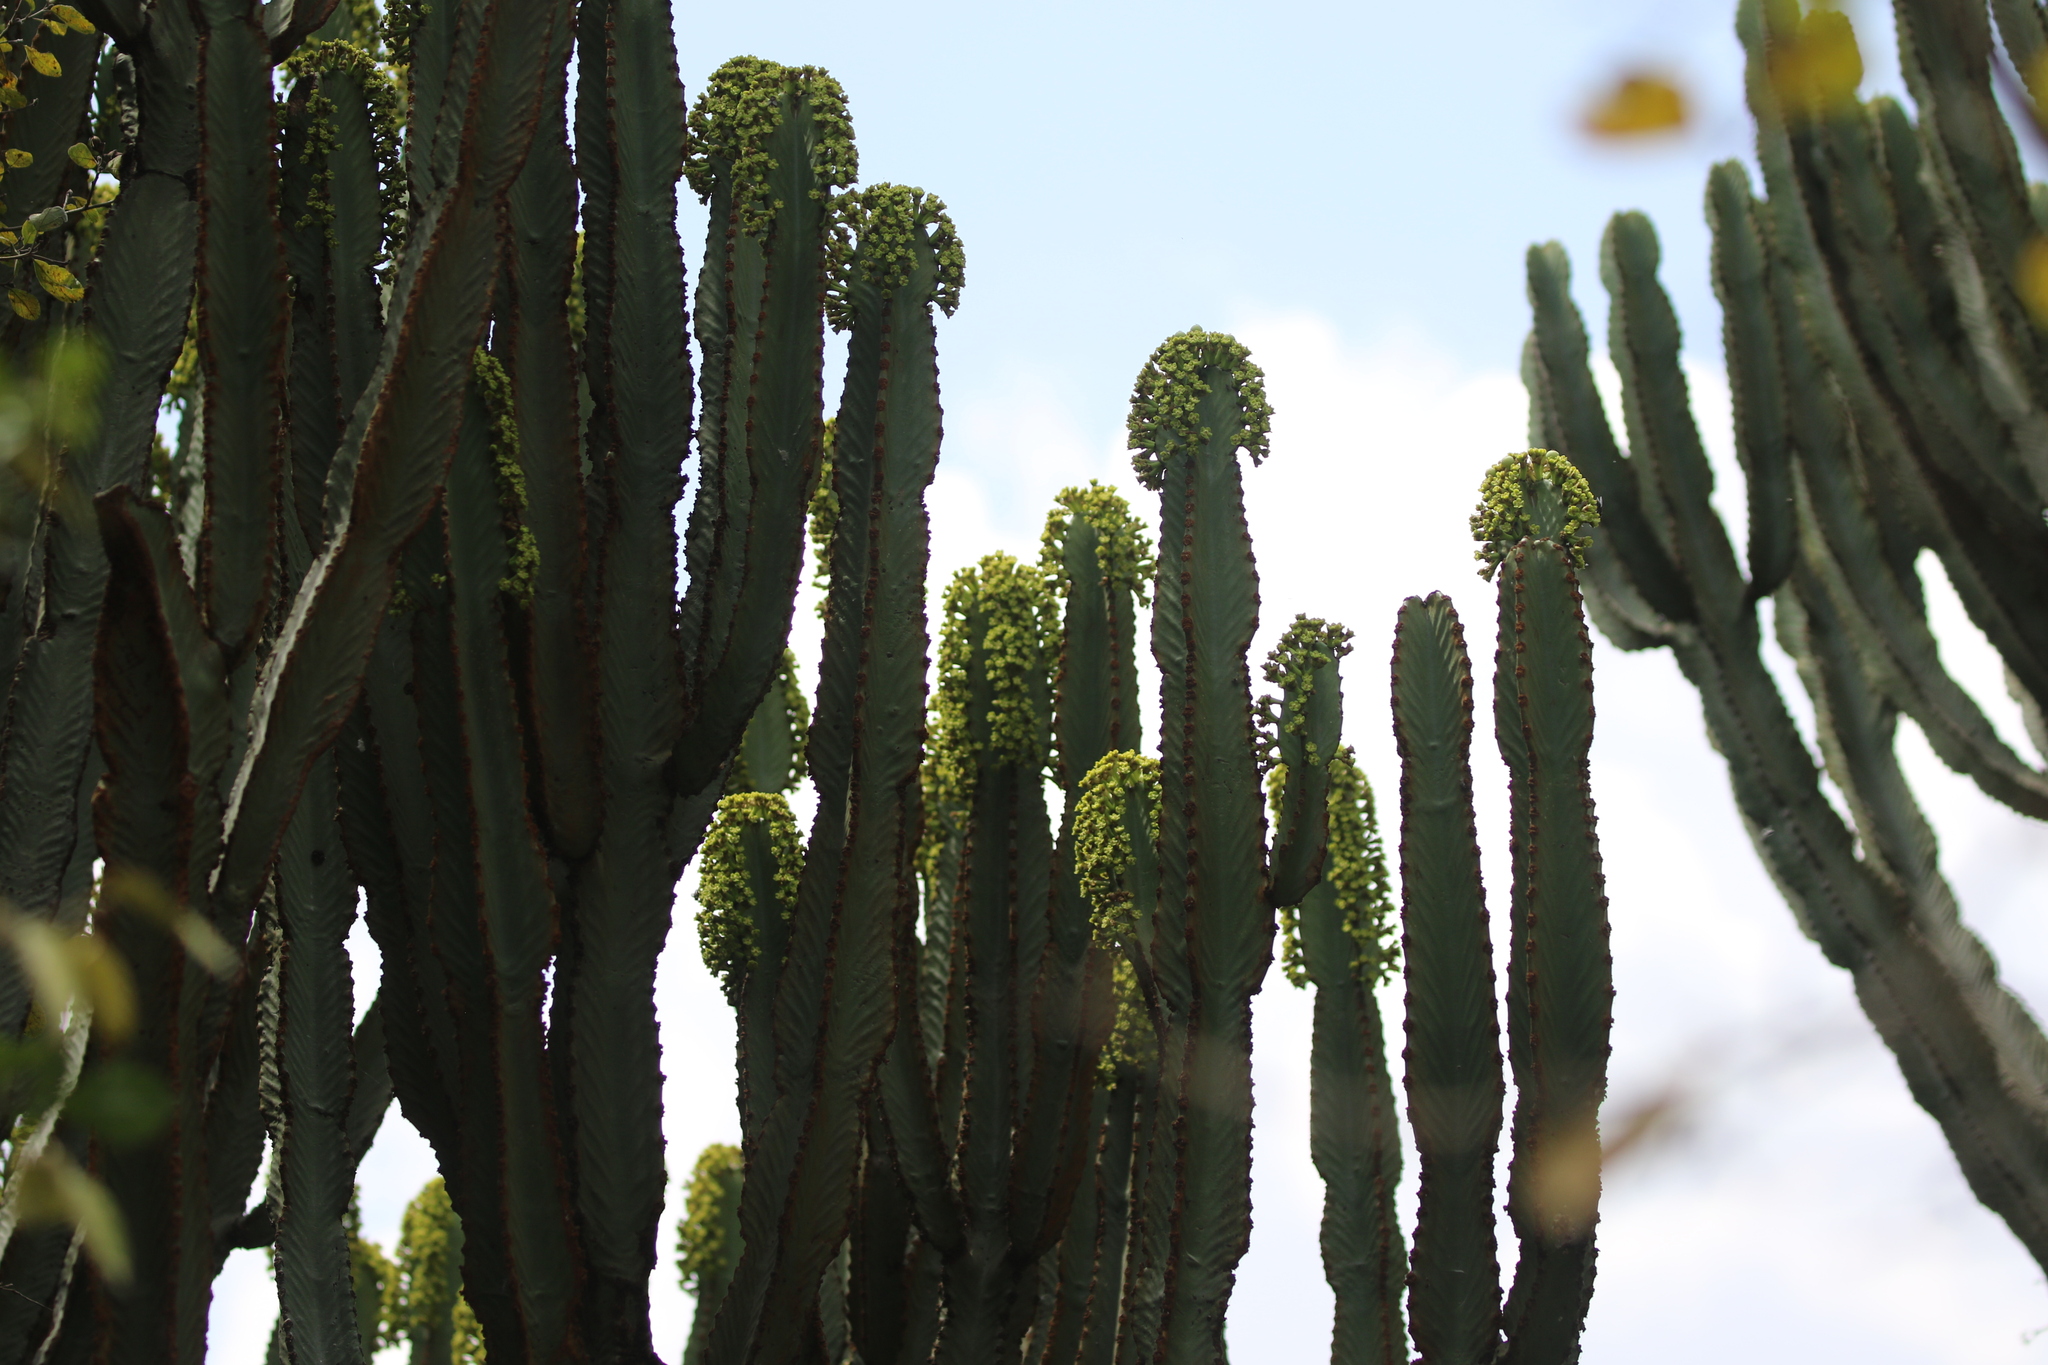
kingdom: Plantae
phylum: Tracheophyta
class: Magnoliopsida
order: Malpighiales
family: Euphorbiaceae
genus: Euphorbia
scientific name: Euphorbia ingens
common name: Cactus spurge
